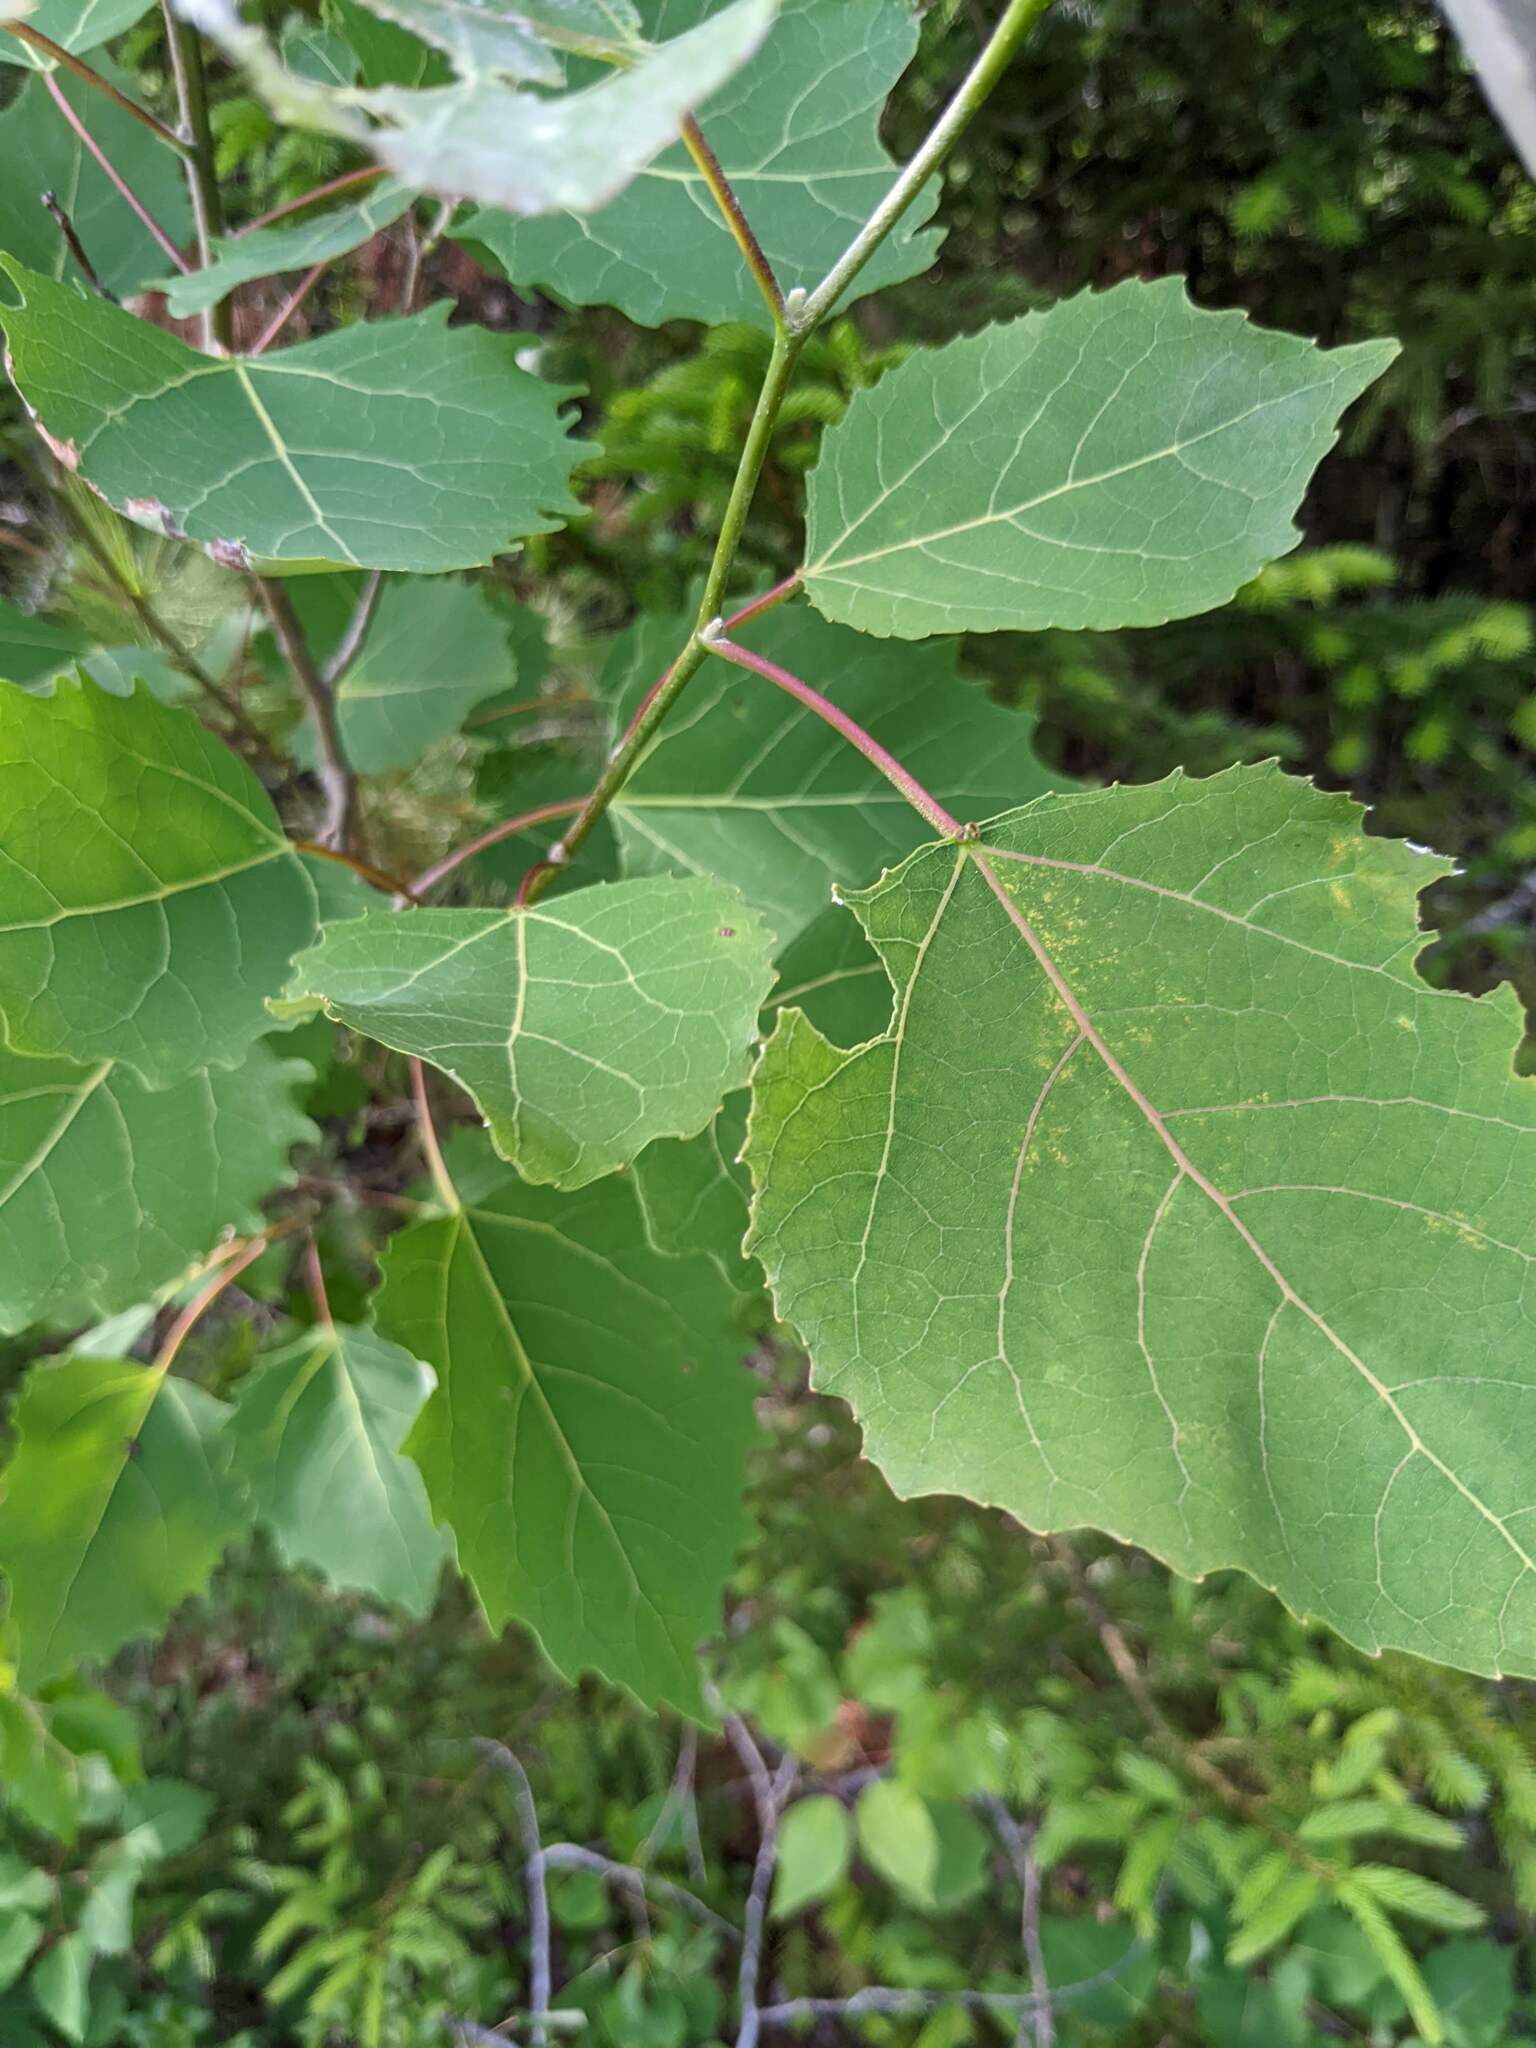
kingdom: Plantae
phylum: Tracheophyta
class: Magnoliopsida
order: Malpighiales
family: Salicaceae
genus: Populus
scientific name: Populus grandidentata
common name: Bigtooth aspen
